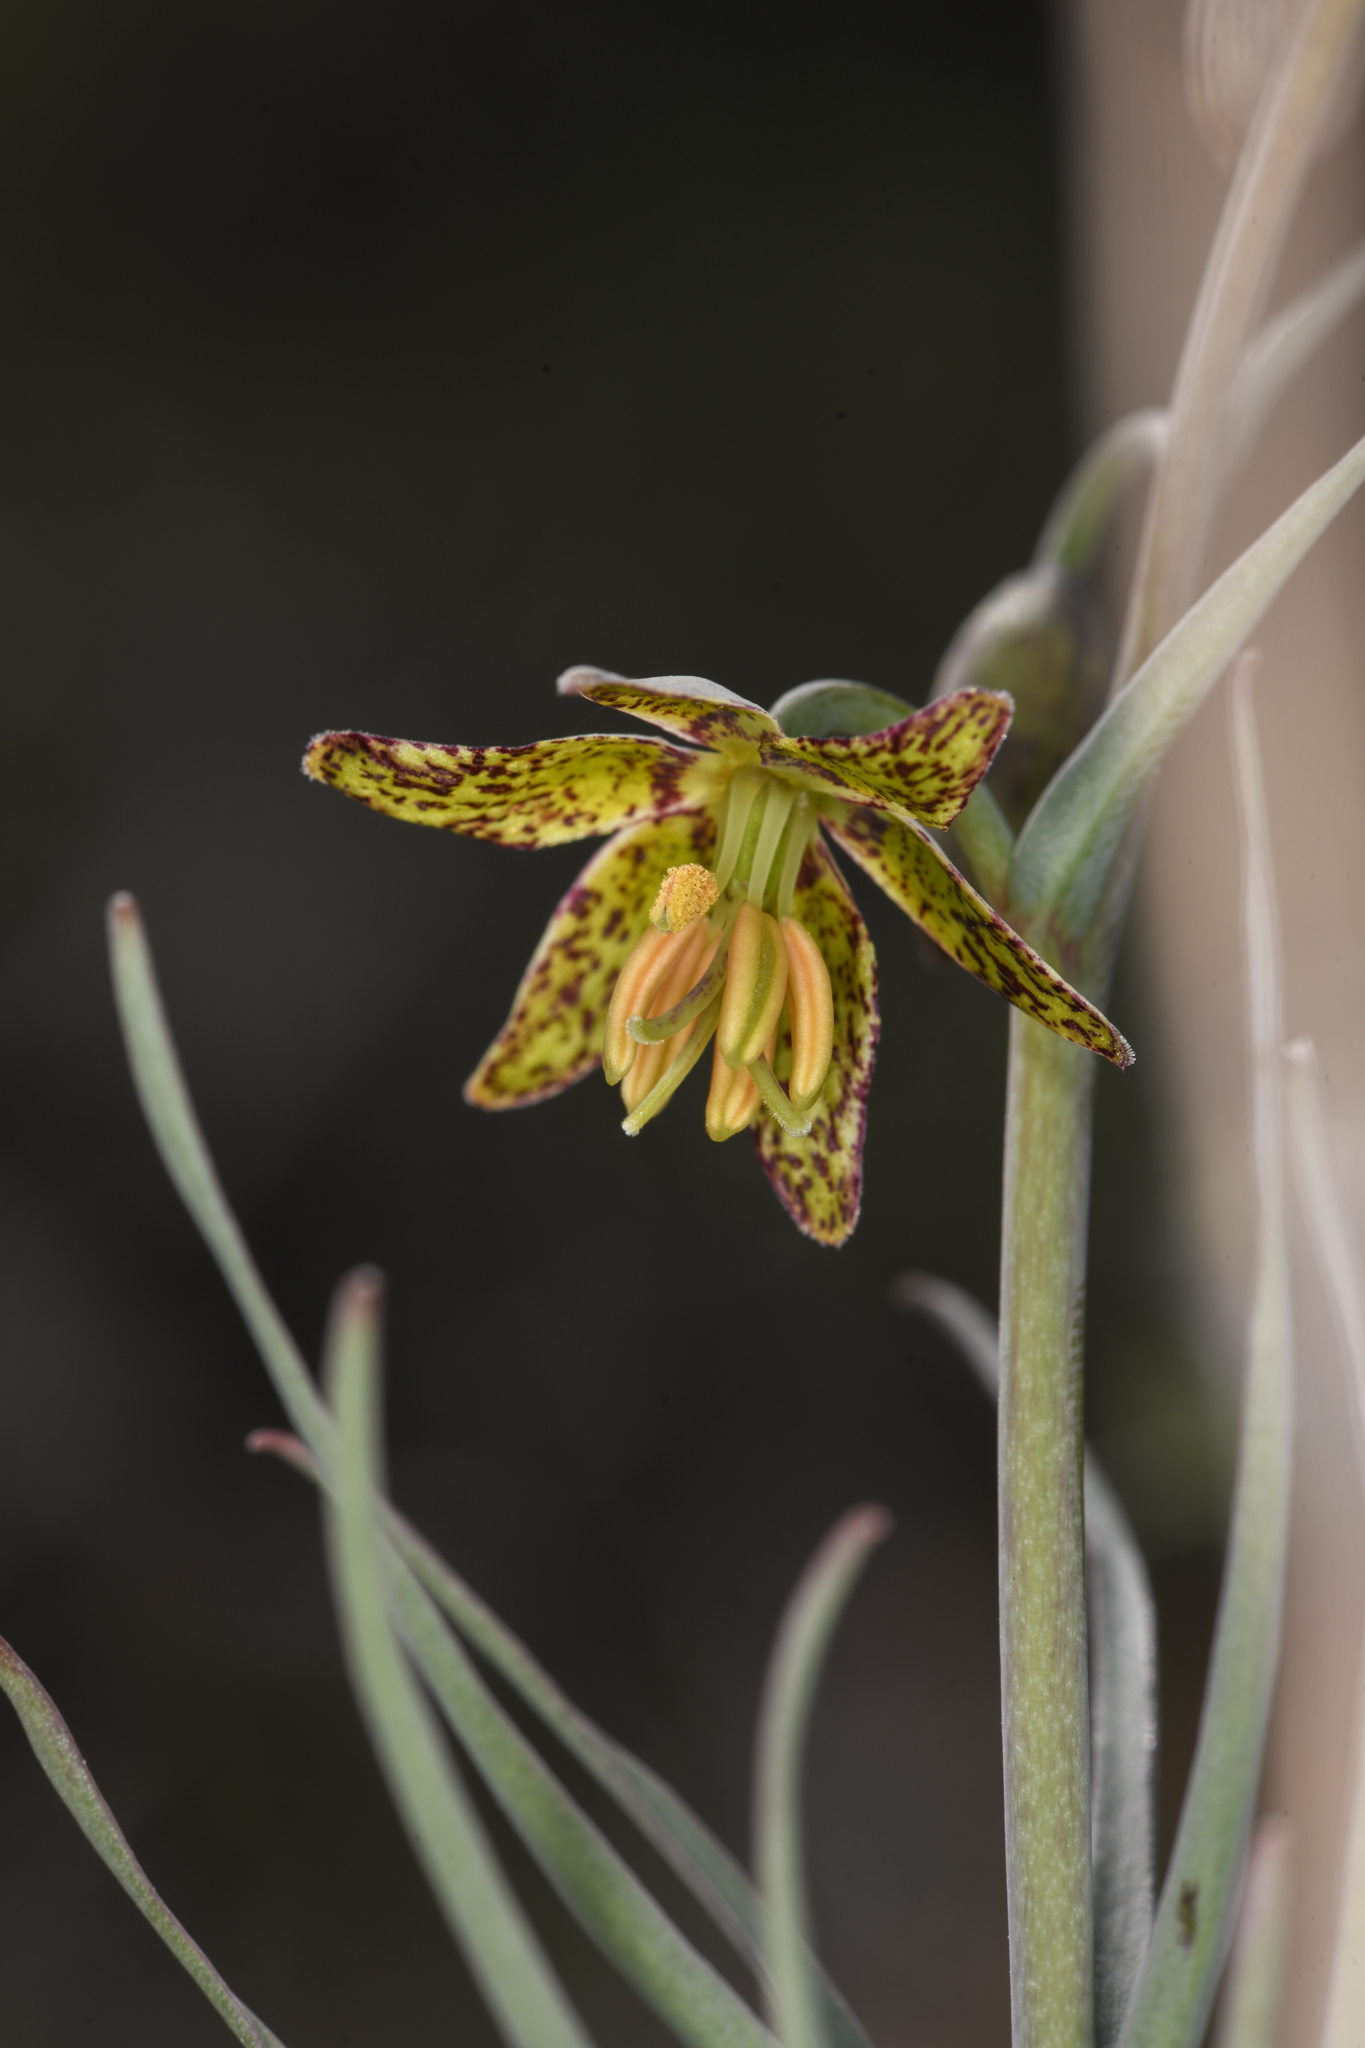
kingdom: Plantae
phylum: Tracheophyta
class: Liliopsida
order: Liliales
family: Liliaceae
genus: Fritillaria
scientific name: Fritillaria atropurpurea
